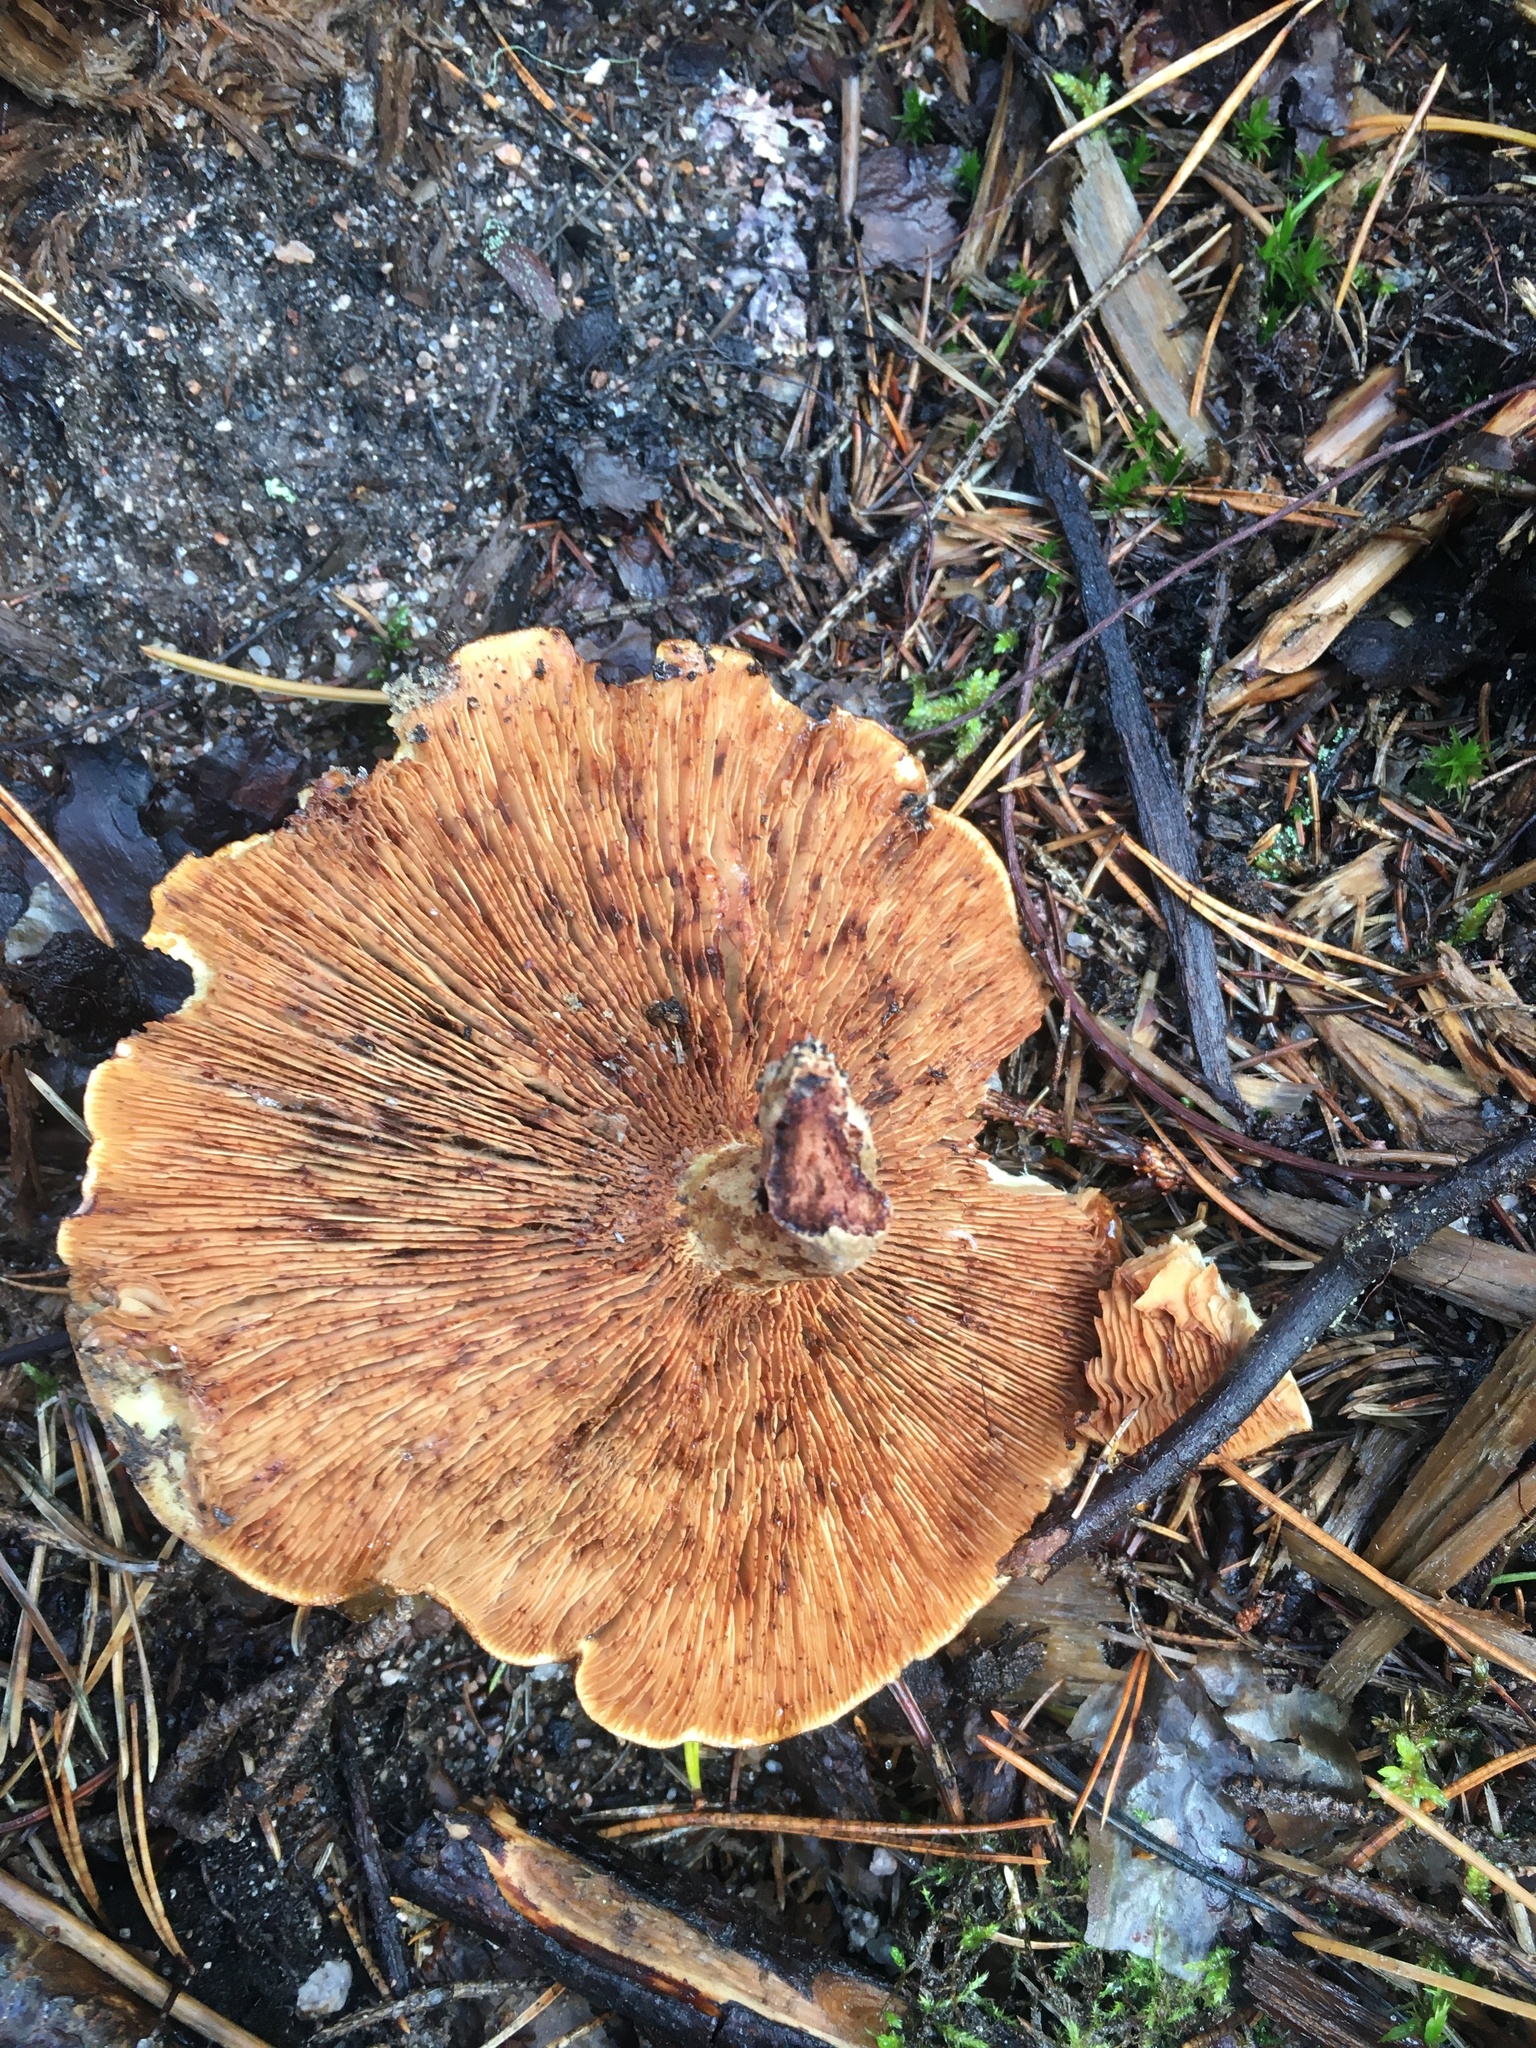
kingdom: Fungi
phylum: Basidiomycota
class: Agaricomycetes
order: Boletales
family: Paxillaceae
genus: Paxillus
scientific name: Paxillus involutus
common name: Brown roll rim
